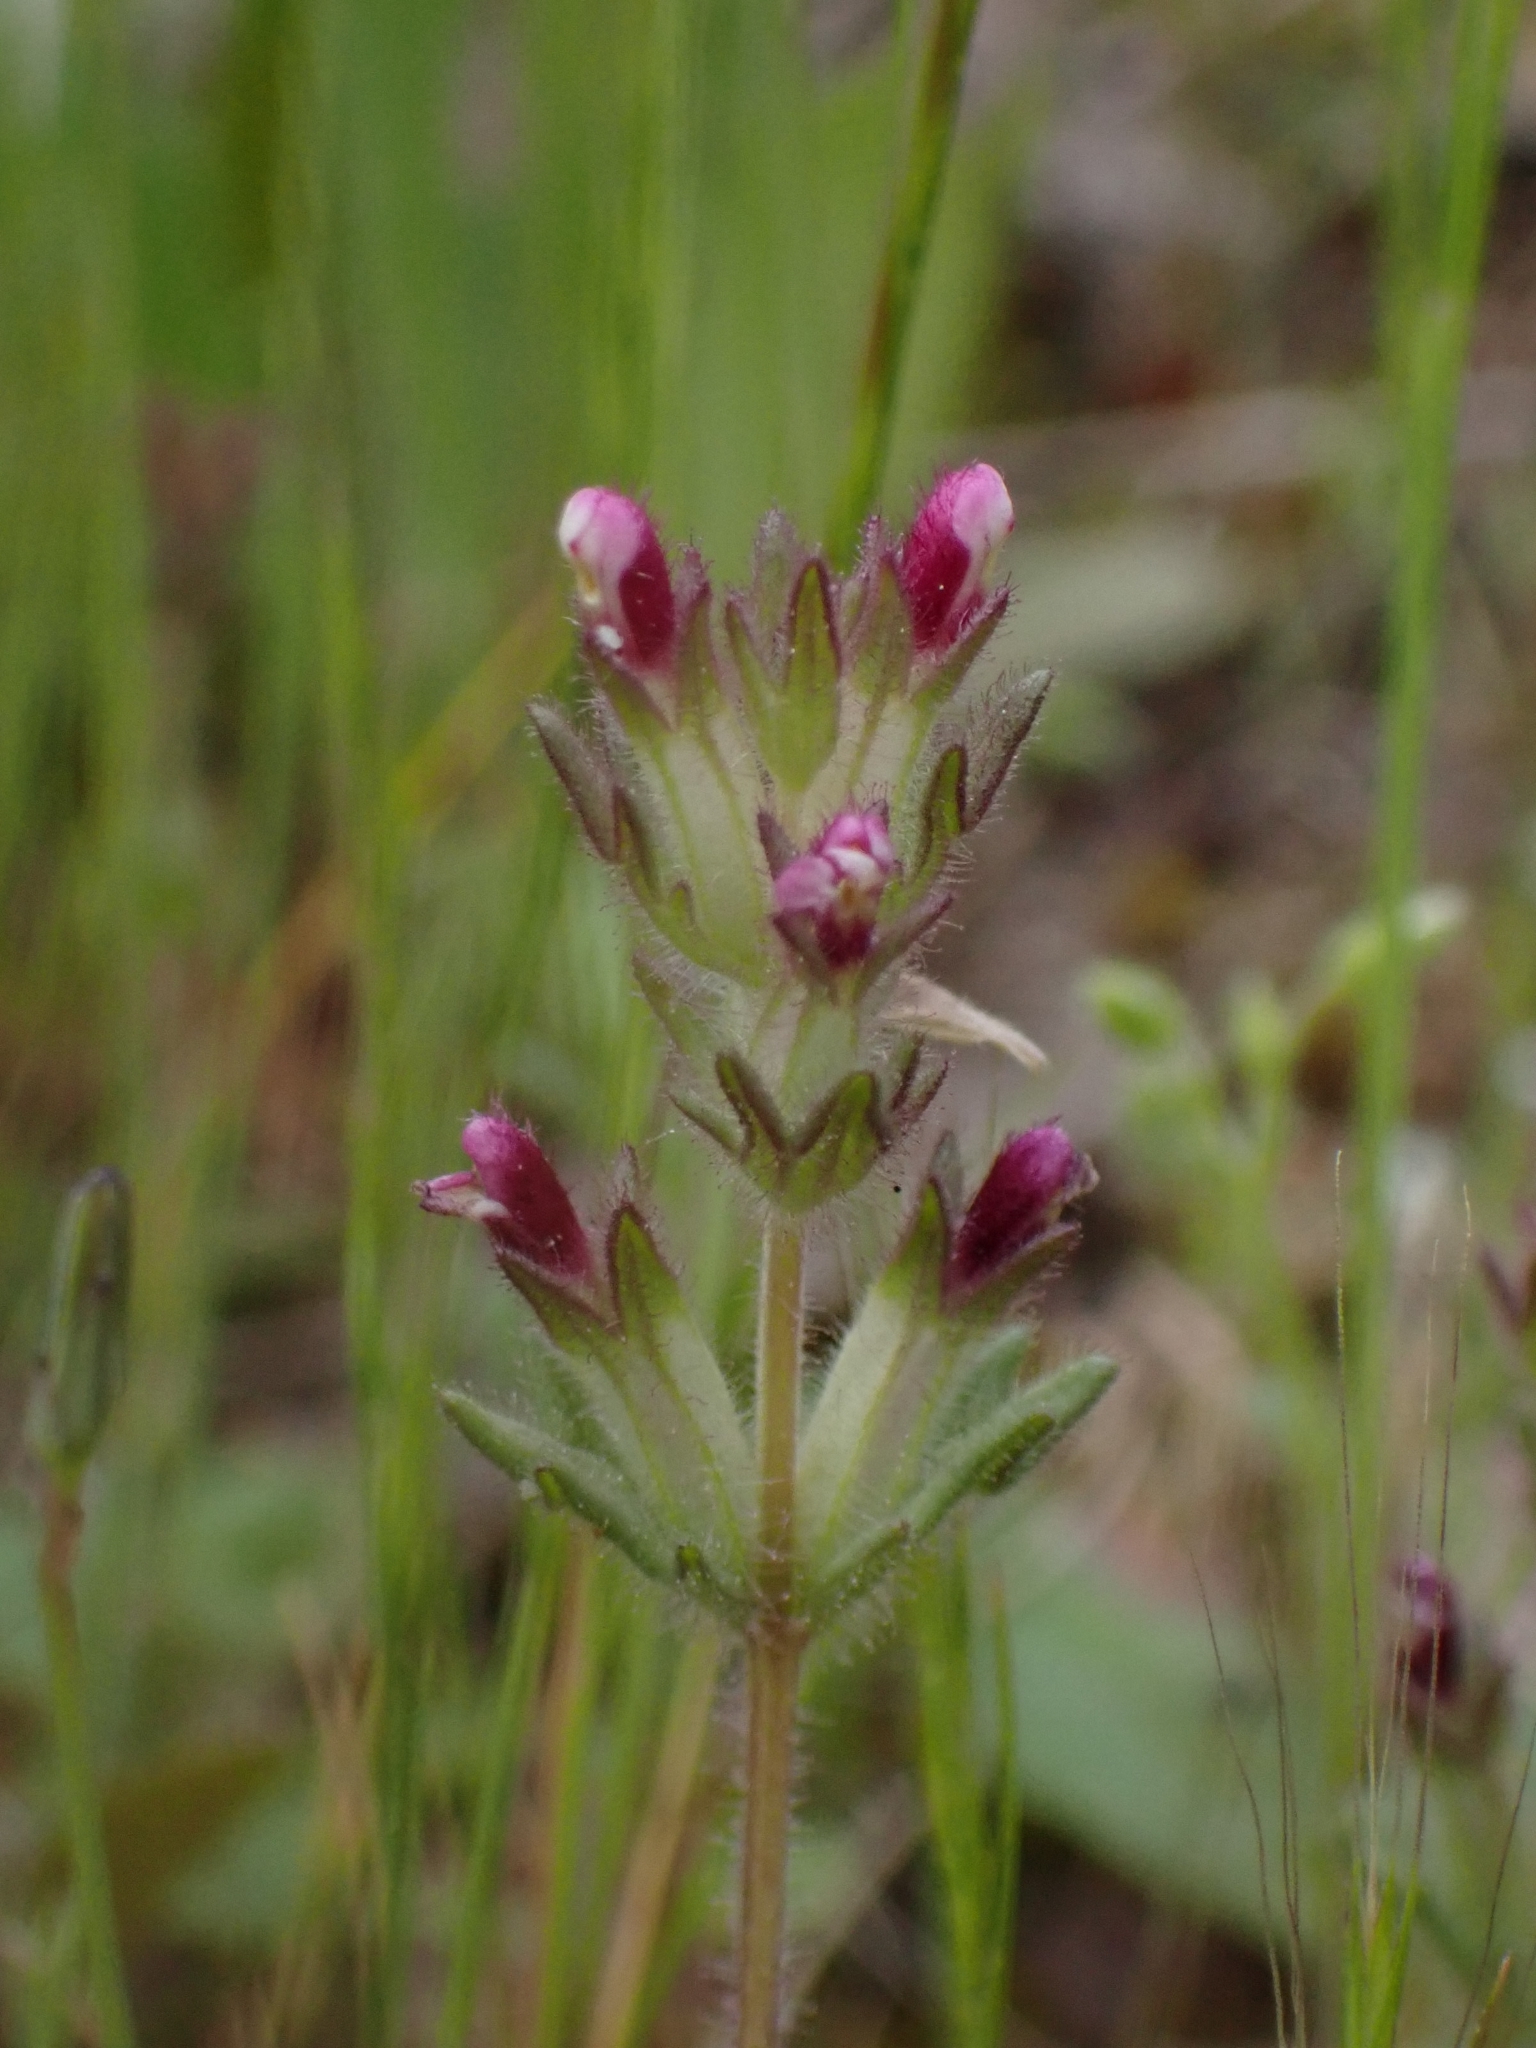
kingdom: Plantae
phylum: Tracheophyta
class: Magnoliopsida
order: Lamiales
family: Orobanchaceae
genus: Parentucellia
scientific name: Parentucellia latifolia
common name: Broadleaf glandweed
